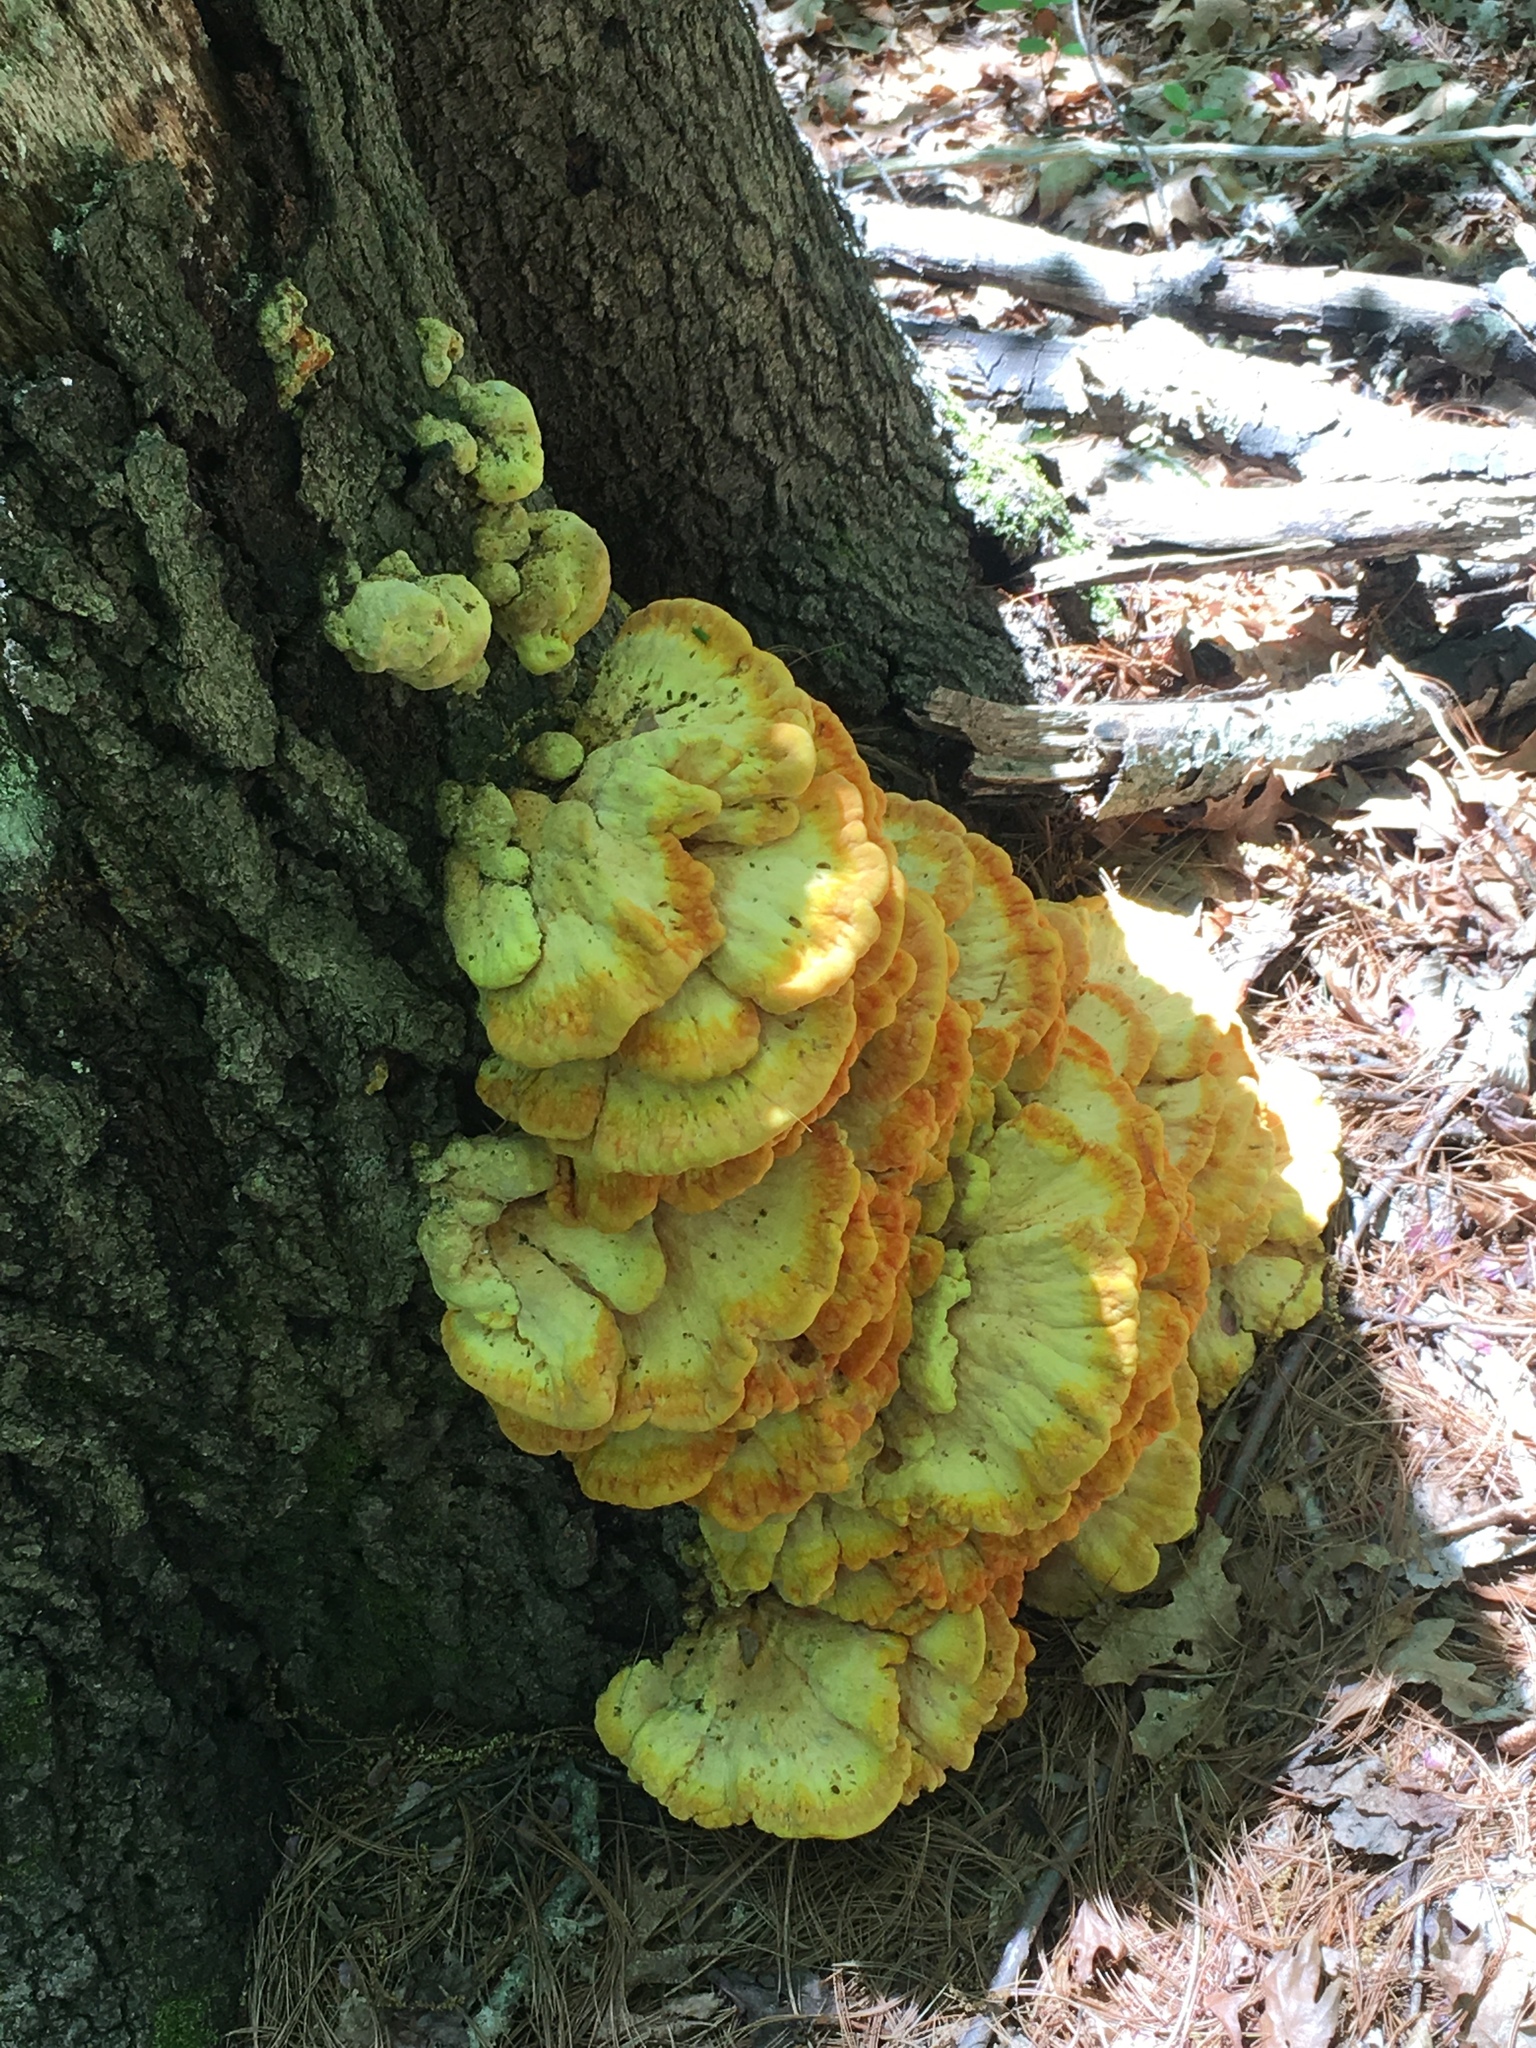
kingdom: Fungi
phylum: Basidiomycota
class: Agaricomycetes
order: Polyporales
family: Laetiporaceae
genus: Laetiporus
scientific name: Laetiporus sulphureus
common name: Chicken of the woods
